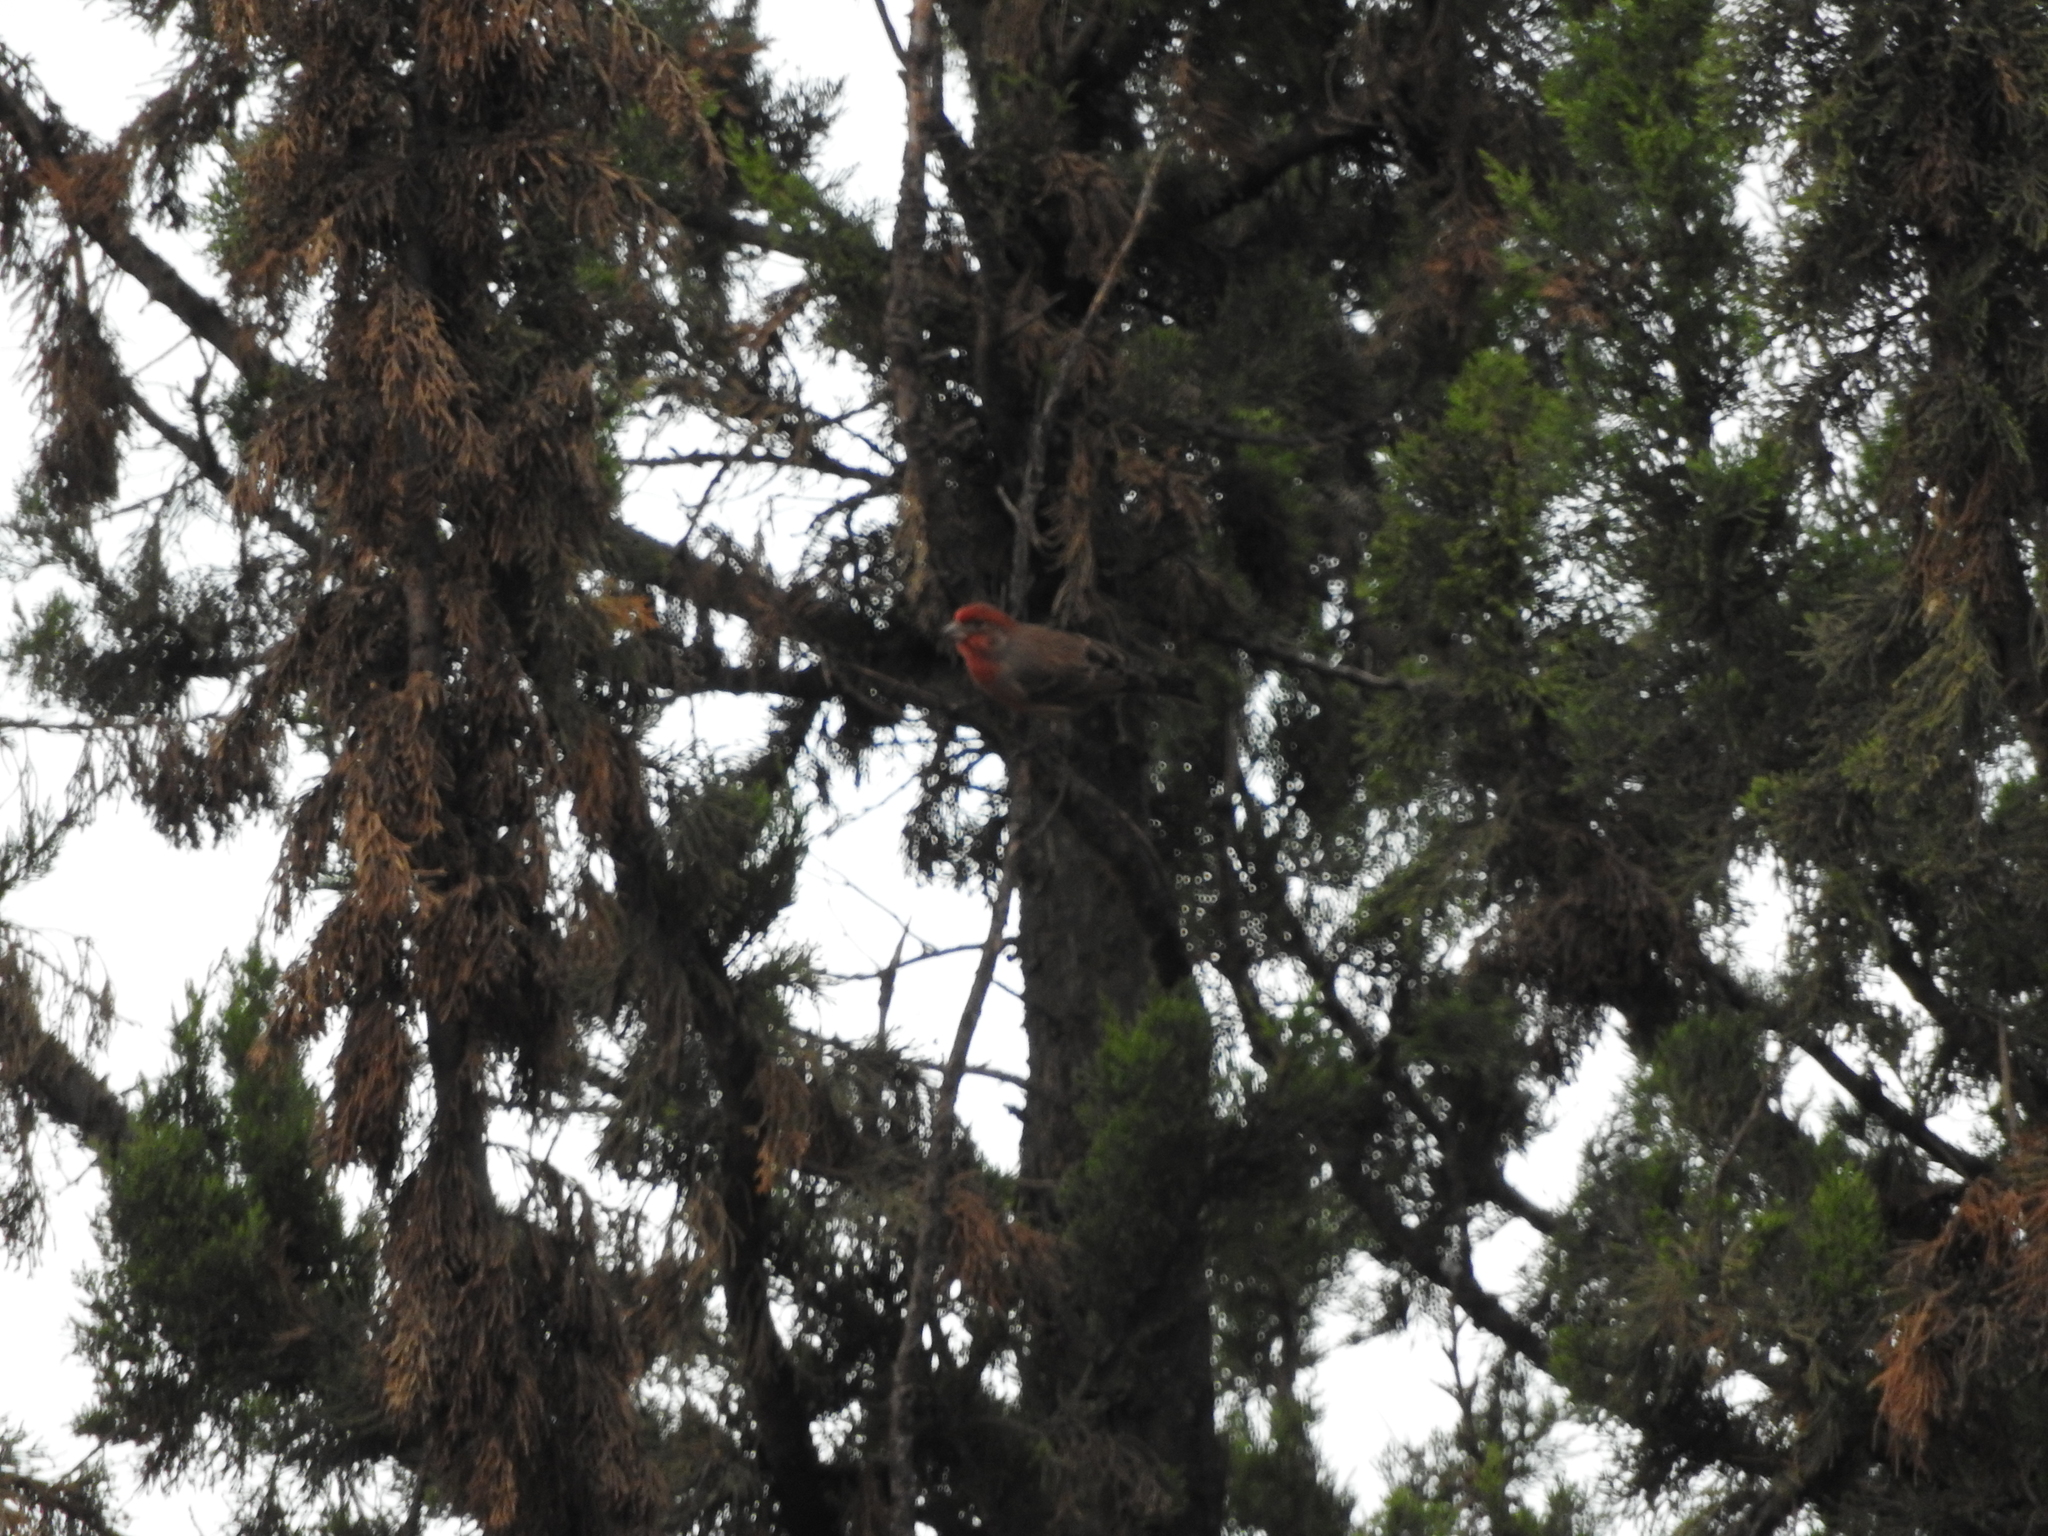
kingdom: Animalia
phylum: Chordata
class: Aves
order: Passeriformes
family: Fringillidae
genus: Haemorhous
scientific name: Haemorhous mexicanus
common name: House finch
